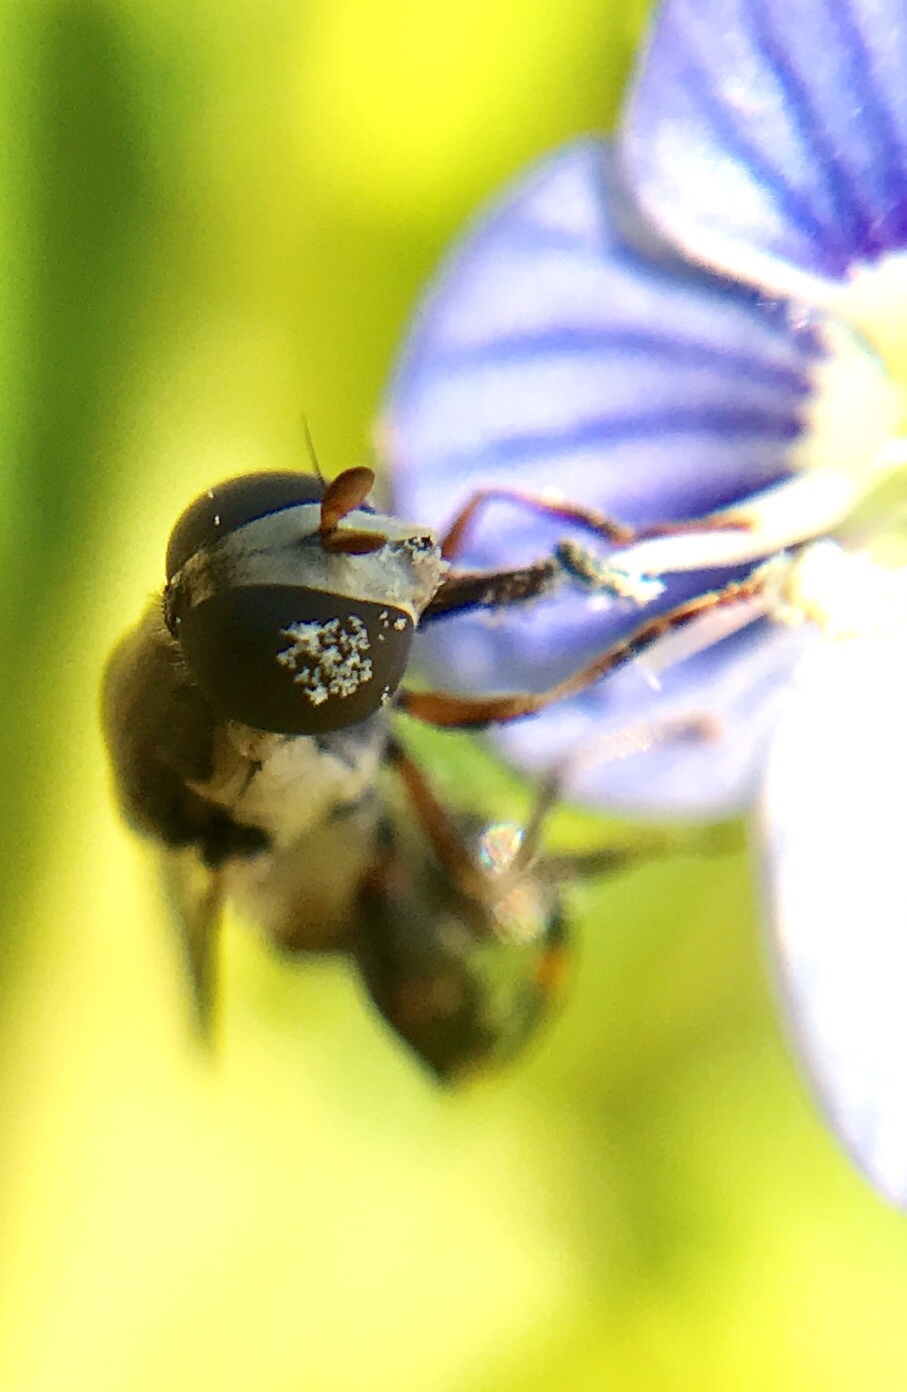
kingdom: Animalia
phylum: Arthropoda
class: Insecta
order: Diptera
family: Syrphidae
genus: Syritta
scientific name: Syritta pipiens
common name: Hover fly
